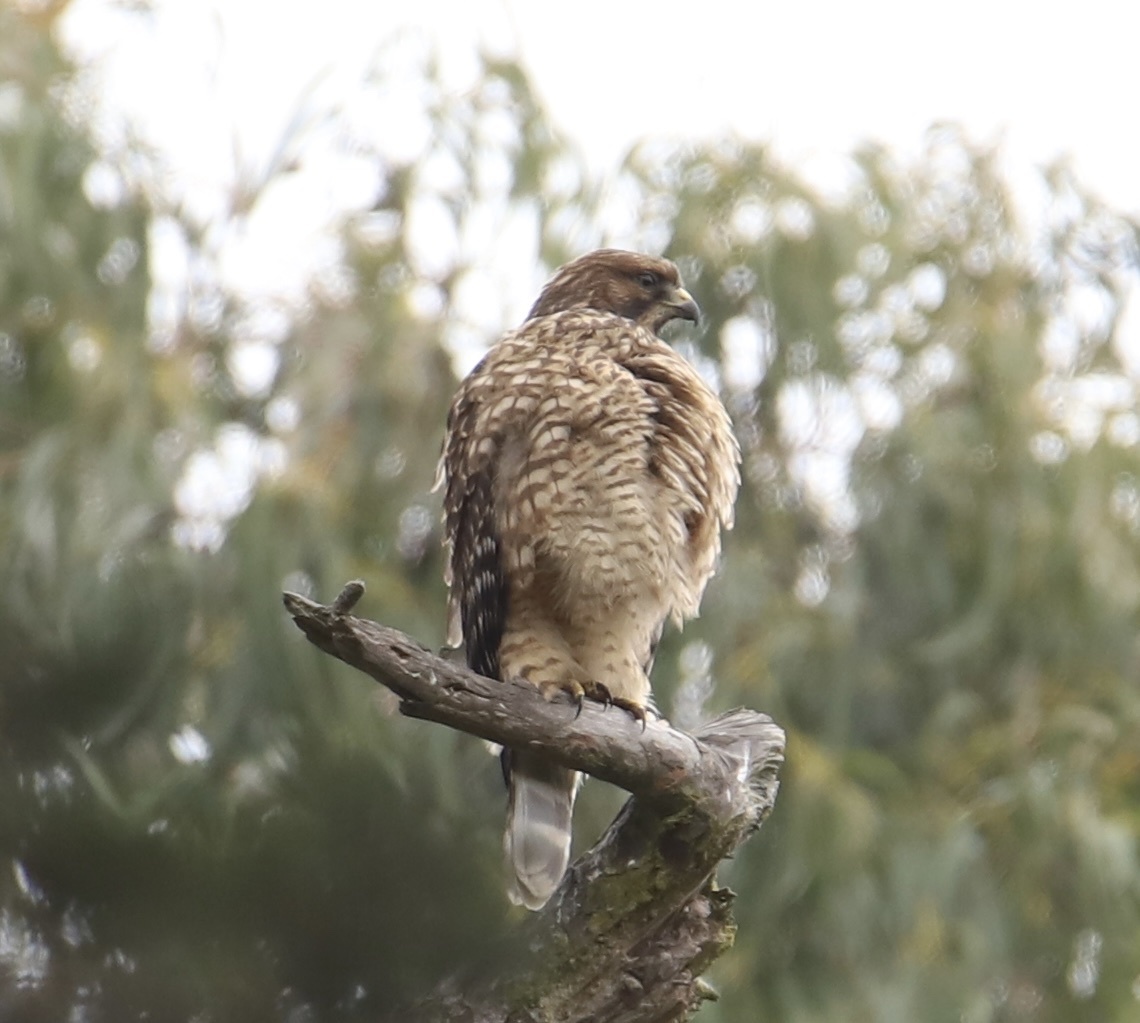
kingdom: Animalia
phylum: Chordata
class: Aves
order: Accipitriformes
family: Accipitridae
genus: Buteo
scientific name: Buteo lineatus
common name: Red-shouldered hawk
